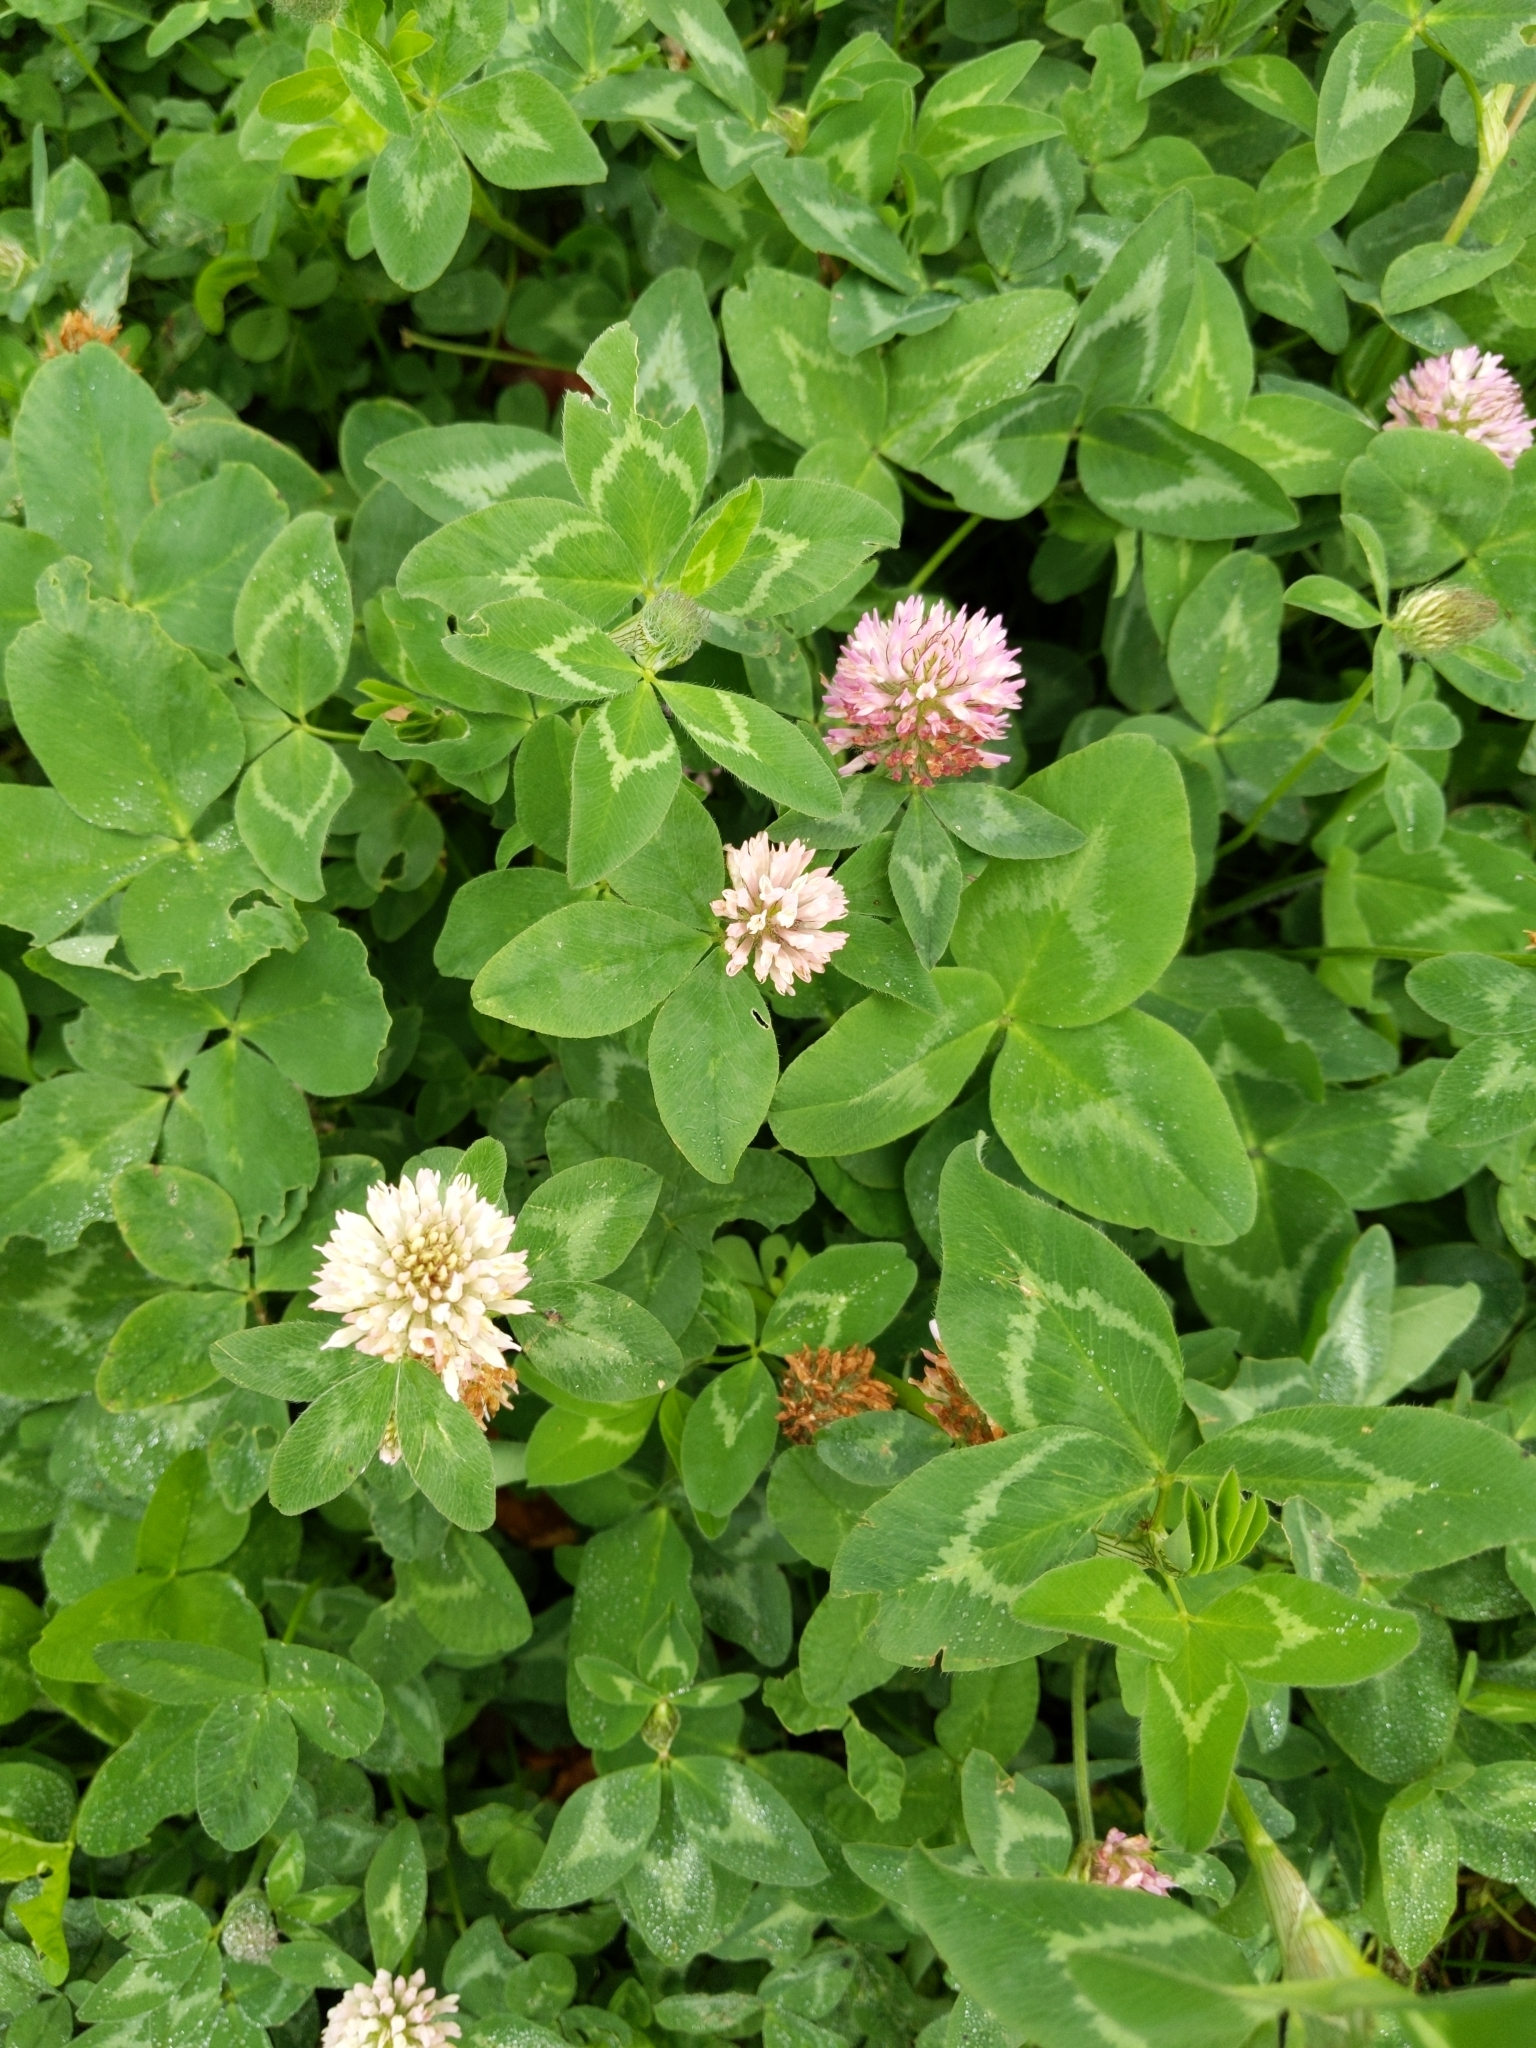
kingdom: Plantae
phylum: Tracheophyta
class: Magnoliopsida
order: Fabales
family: Fabaceae
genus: Trifolium
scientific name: Trifolium pratense
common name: Red clover
